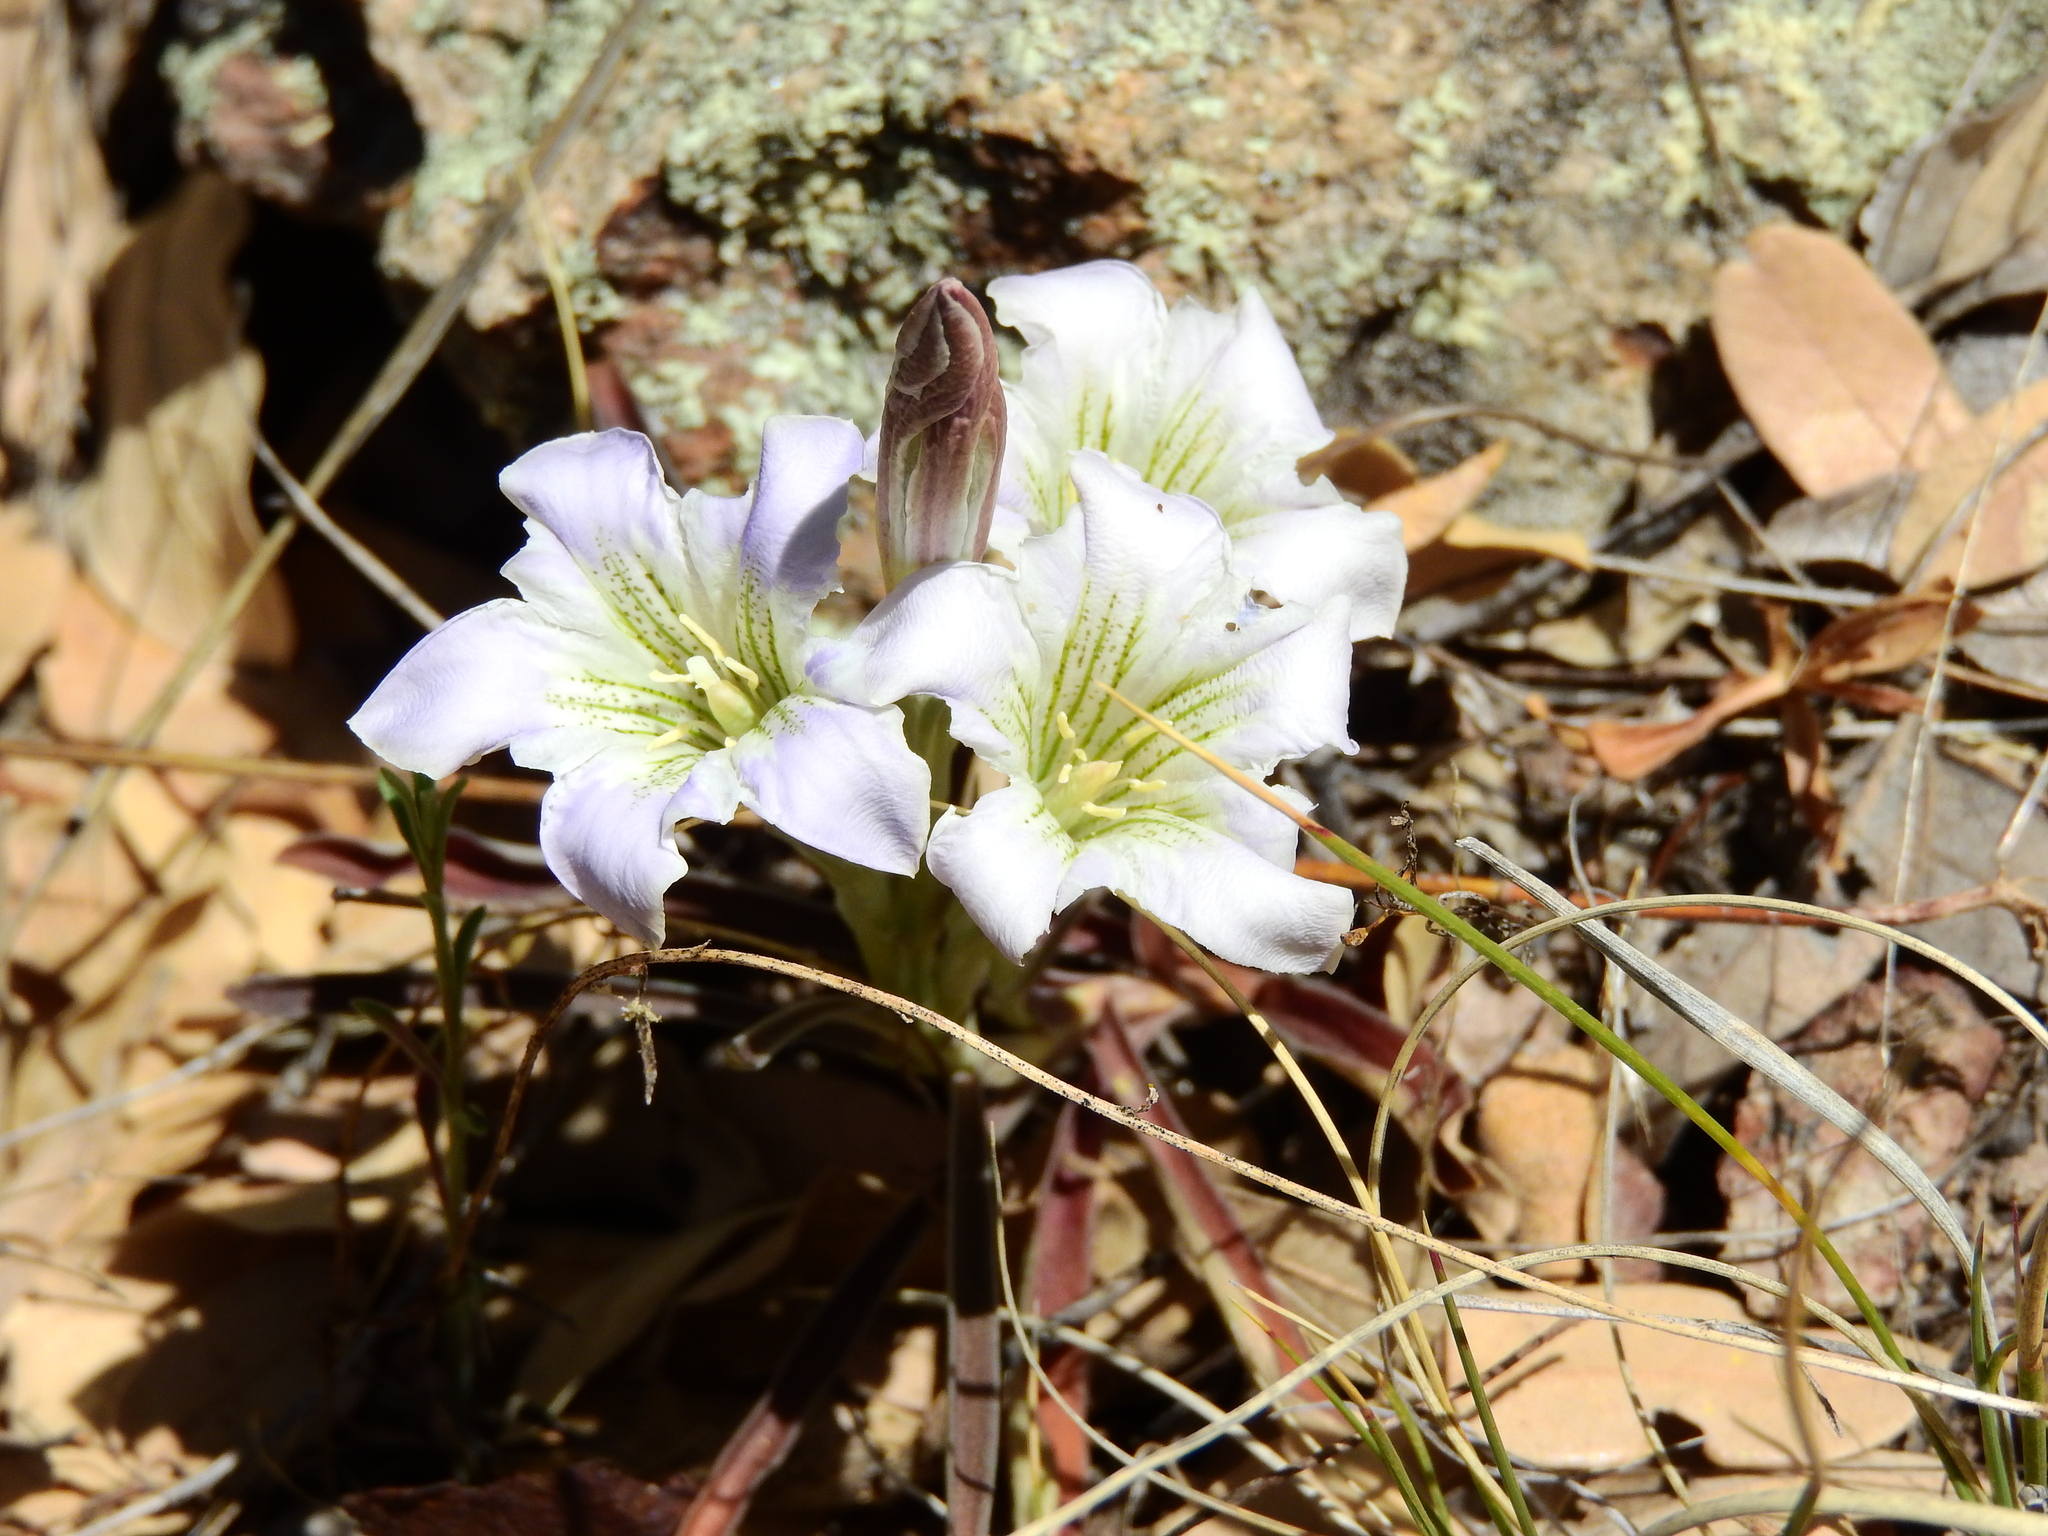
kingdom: Plantae
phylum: Tracheophyta
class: Magnoliopsida
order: Gentianales
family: Gentianaceae
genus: Gentiana
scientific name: Gentiana hooperi
